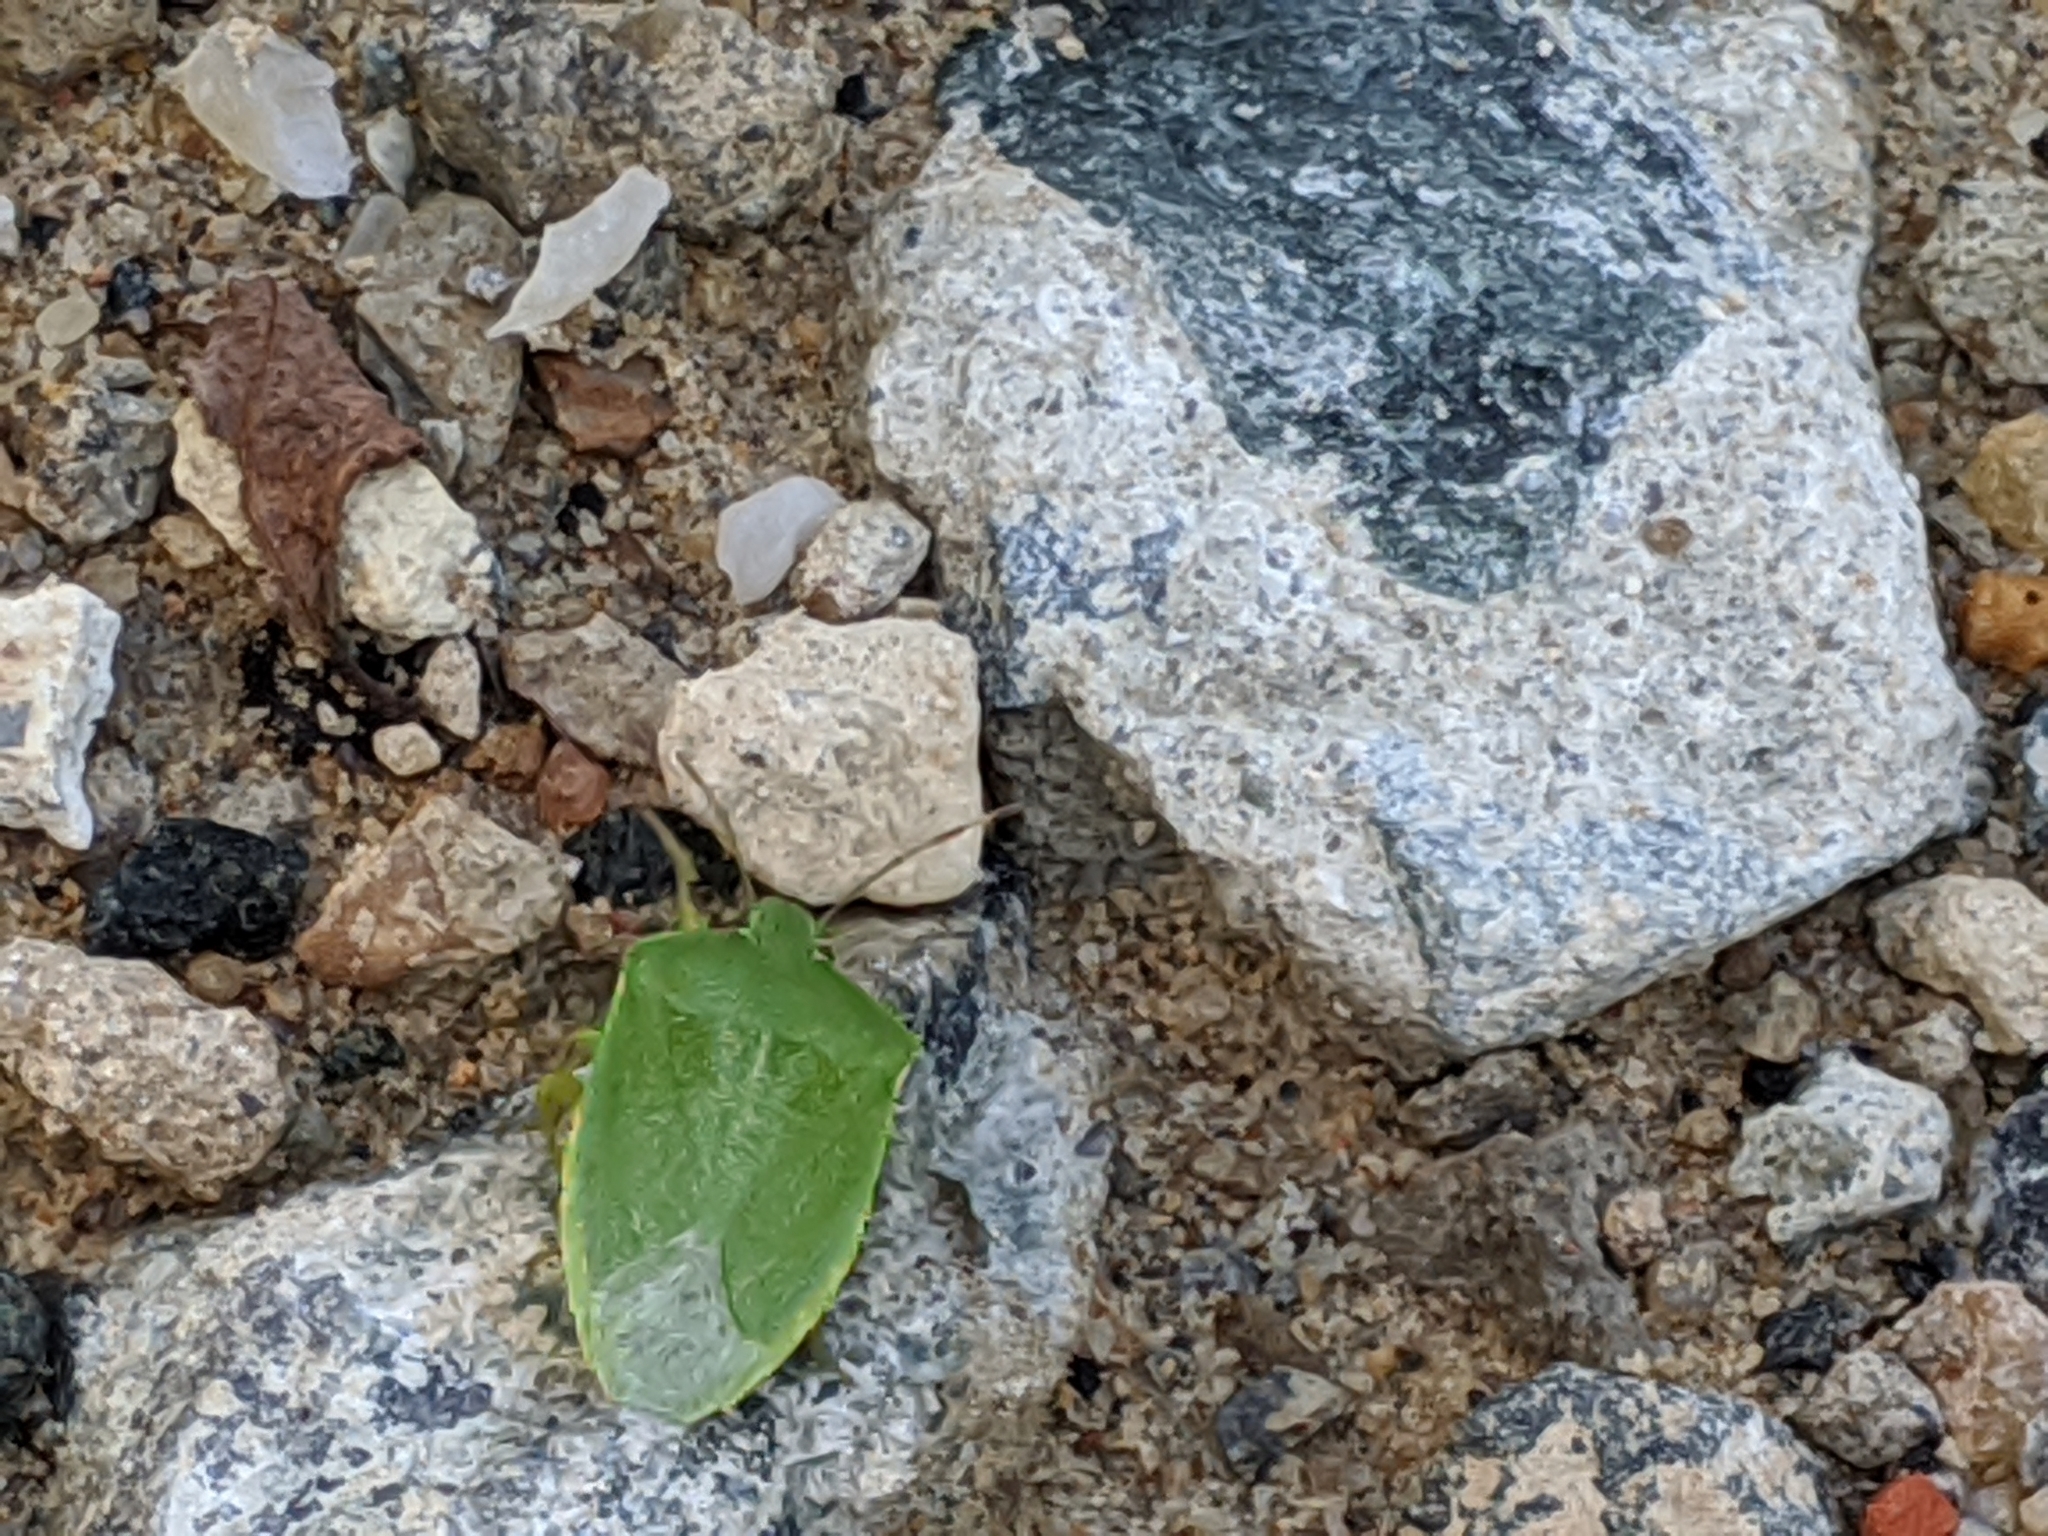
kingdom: Animalia
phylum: Arthropoda
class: Insecta
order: Hemiptera
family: Pentatomidae
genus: Chinavia
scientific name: Chinavia hilaris
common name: Green stink bug
